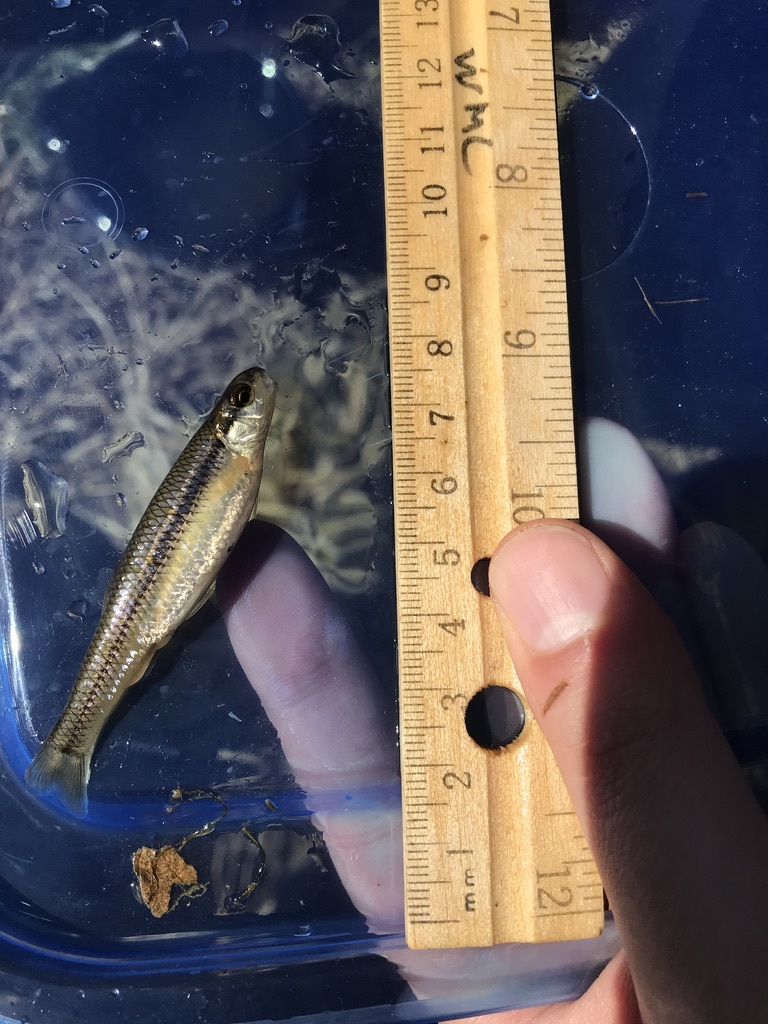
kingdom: Animalia
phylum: Chordata
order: Cypriniformes
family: Cyprinidae
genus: Pimephales
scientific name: Pimephales notatus
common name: Bluntnose minnow
